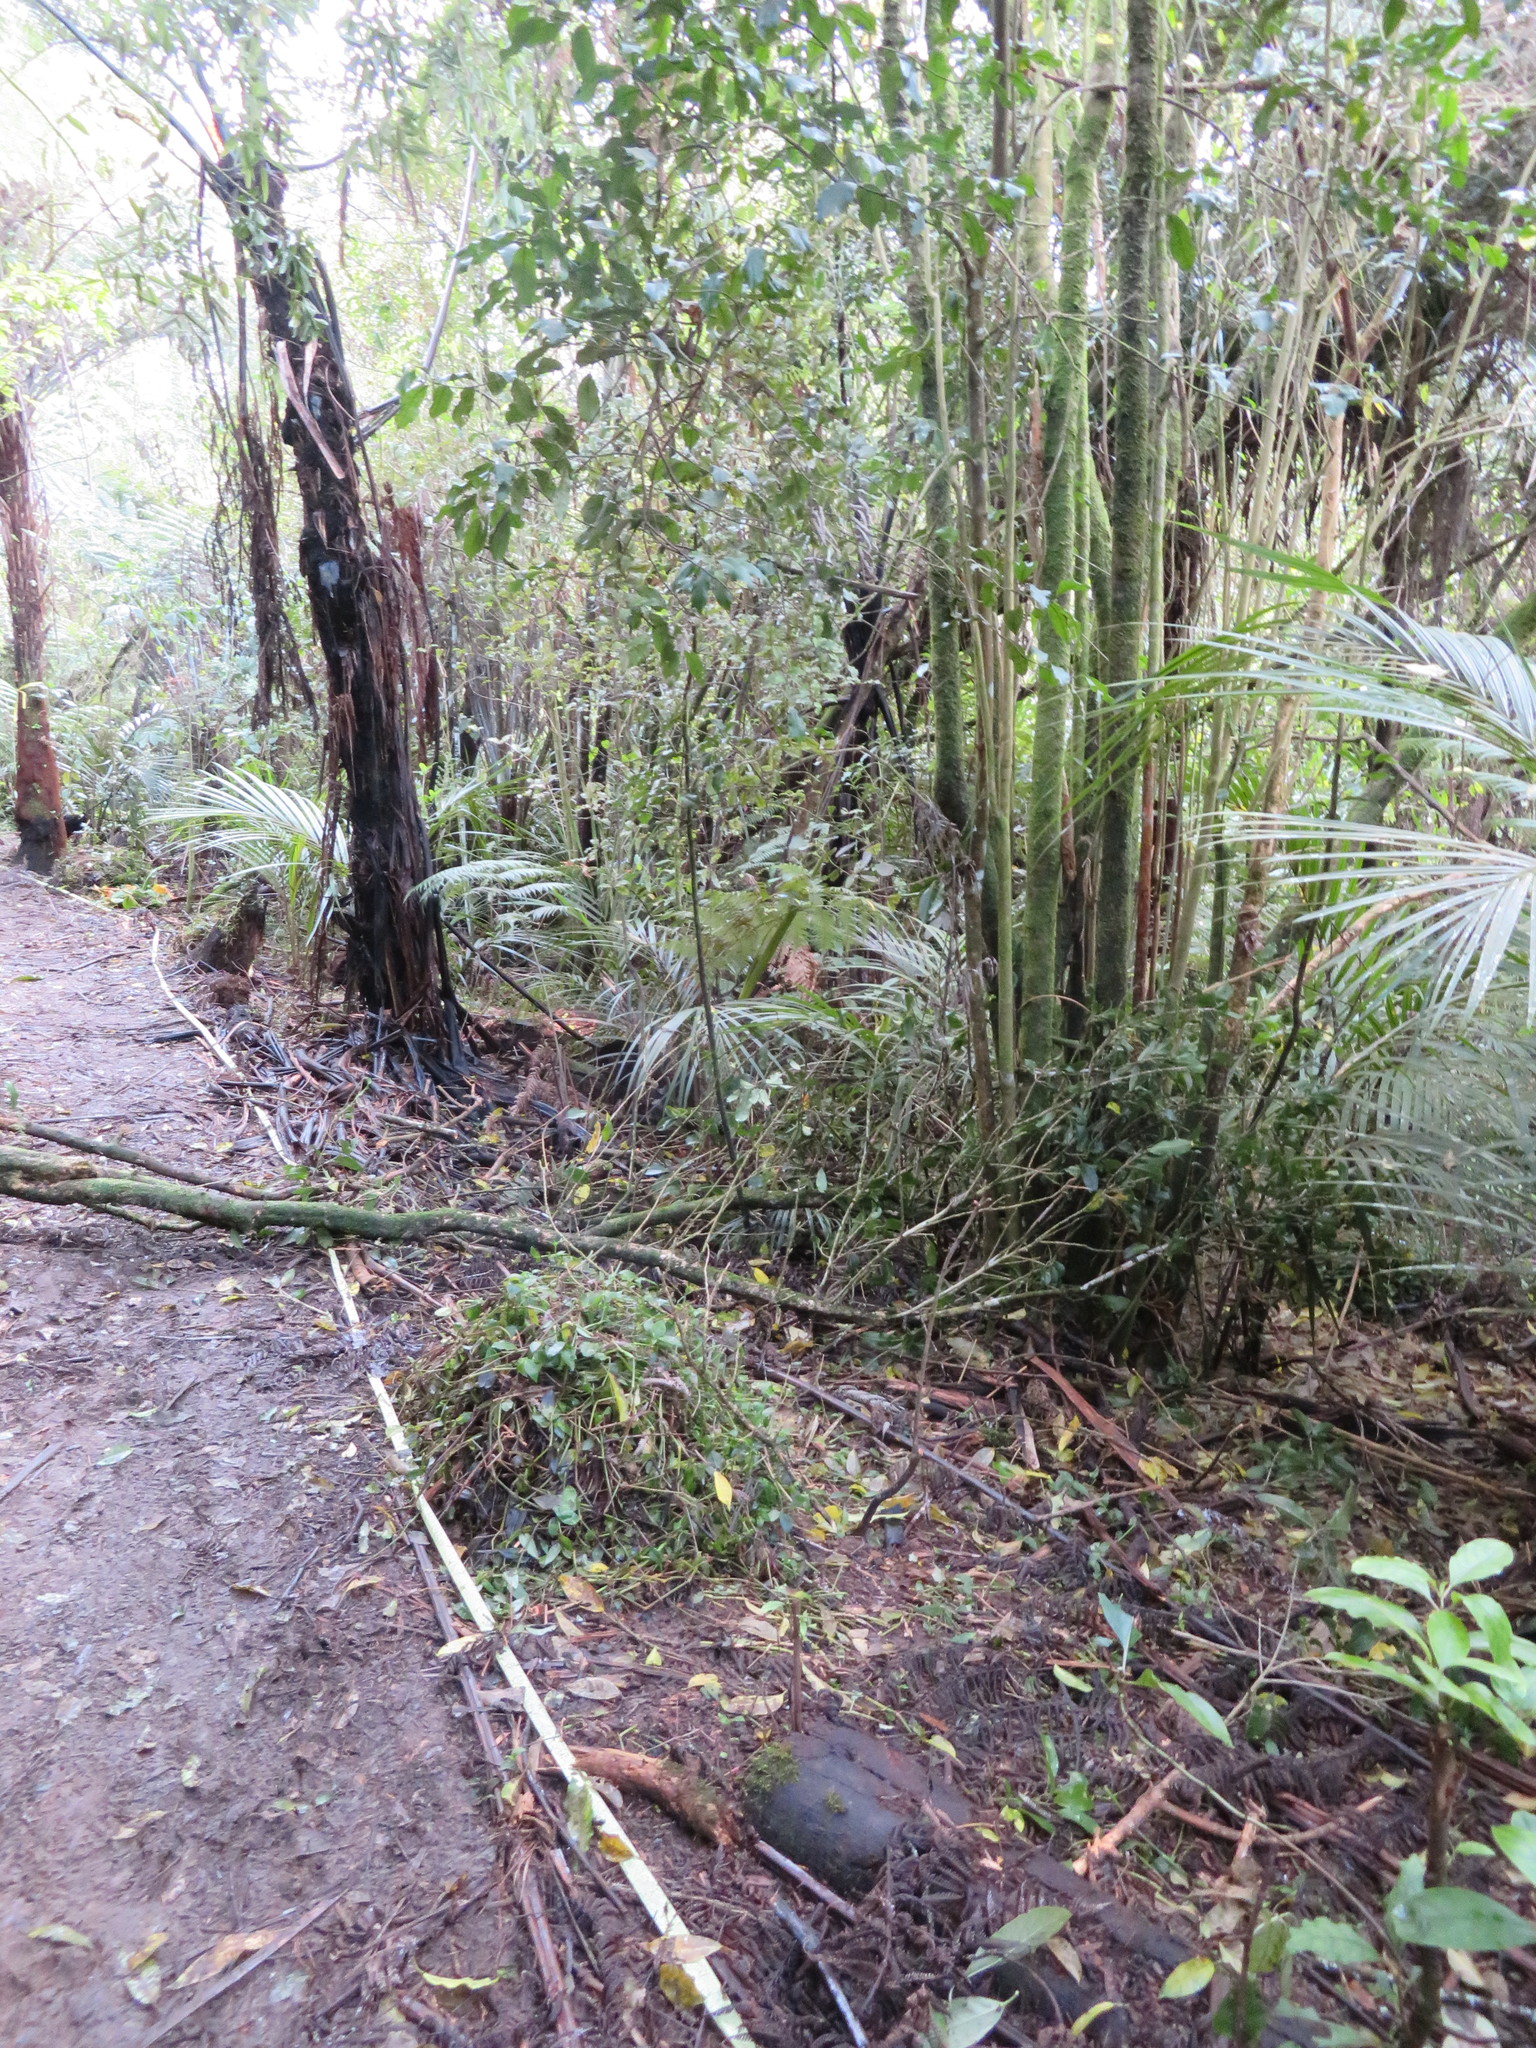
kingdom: Plantae
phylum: Tracheophyta
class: Magnoliopsida
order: Malpighiales
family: Violaceae
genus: Melicytus
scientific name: Melicytus ramiflorus
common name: Mahoe
